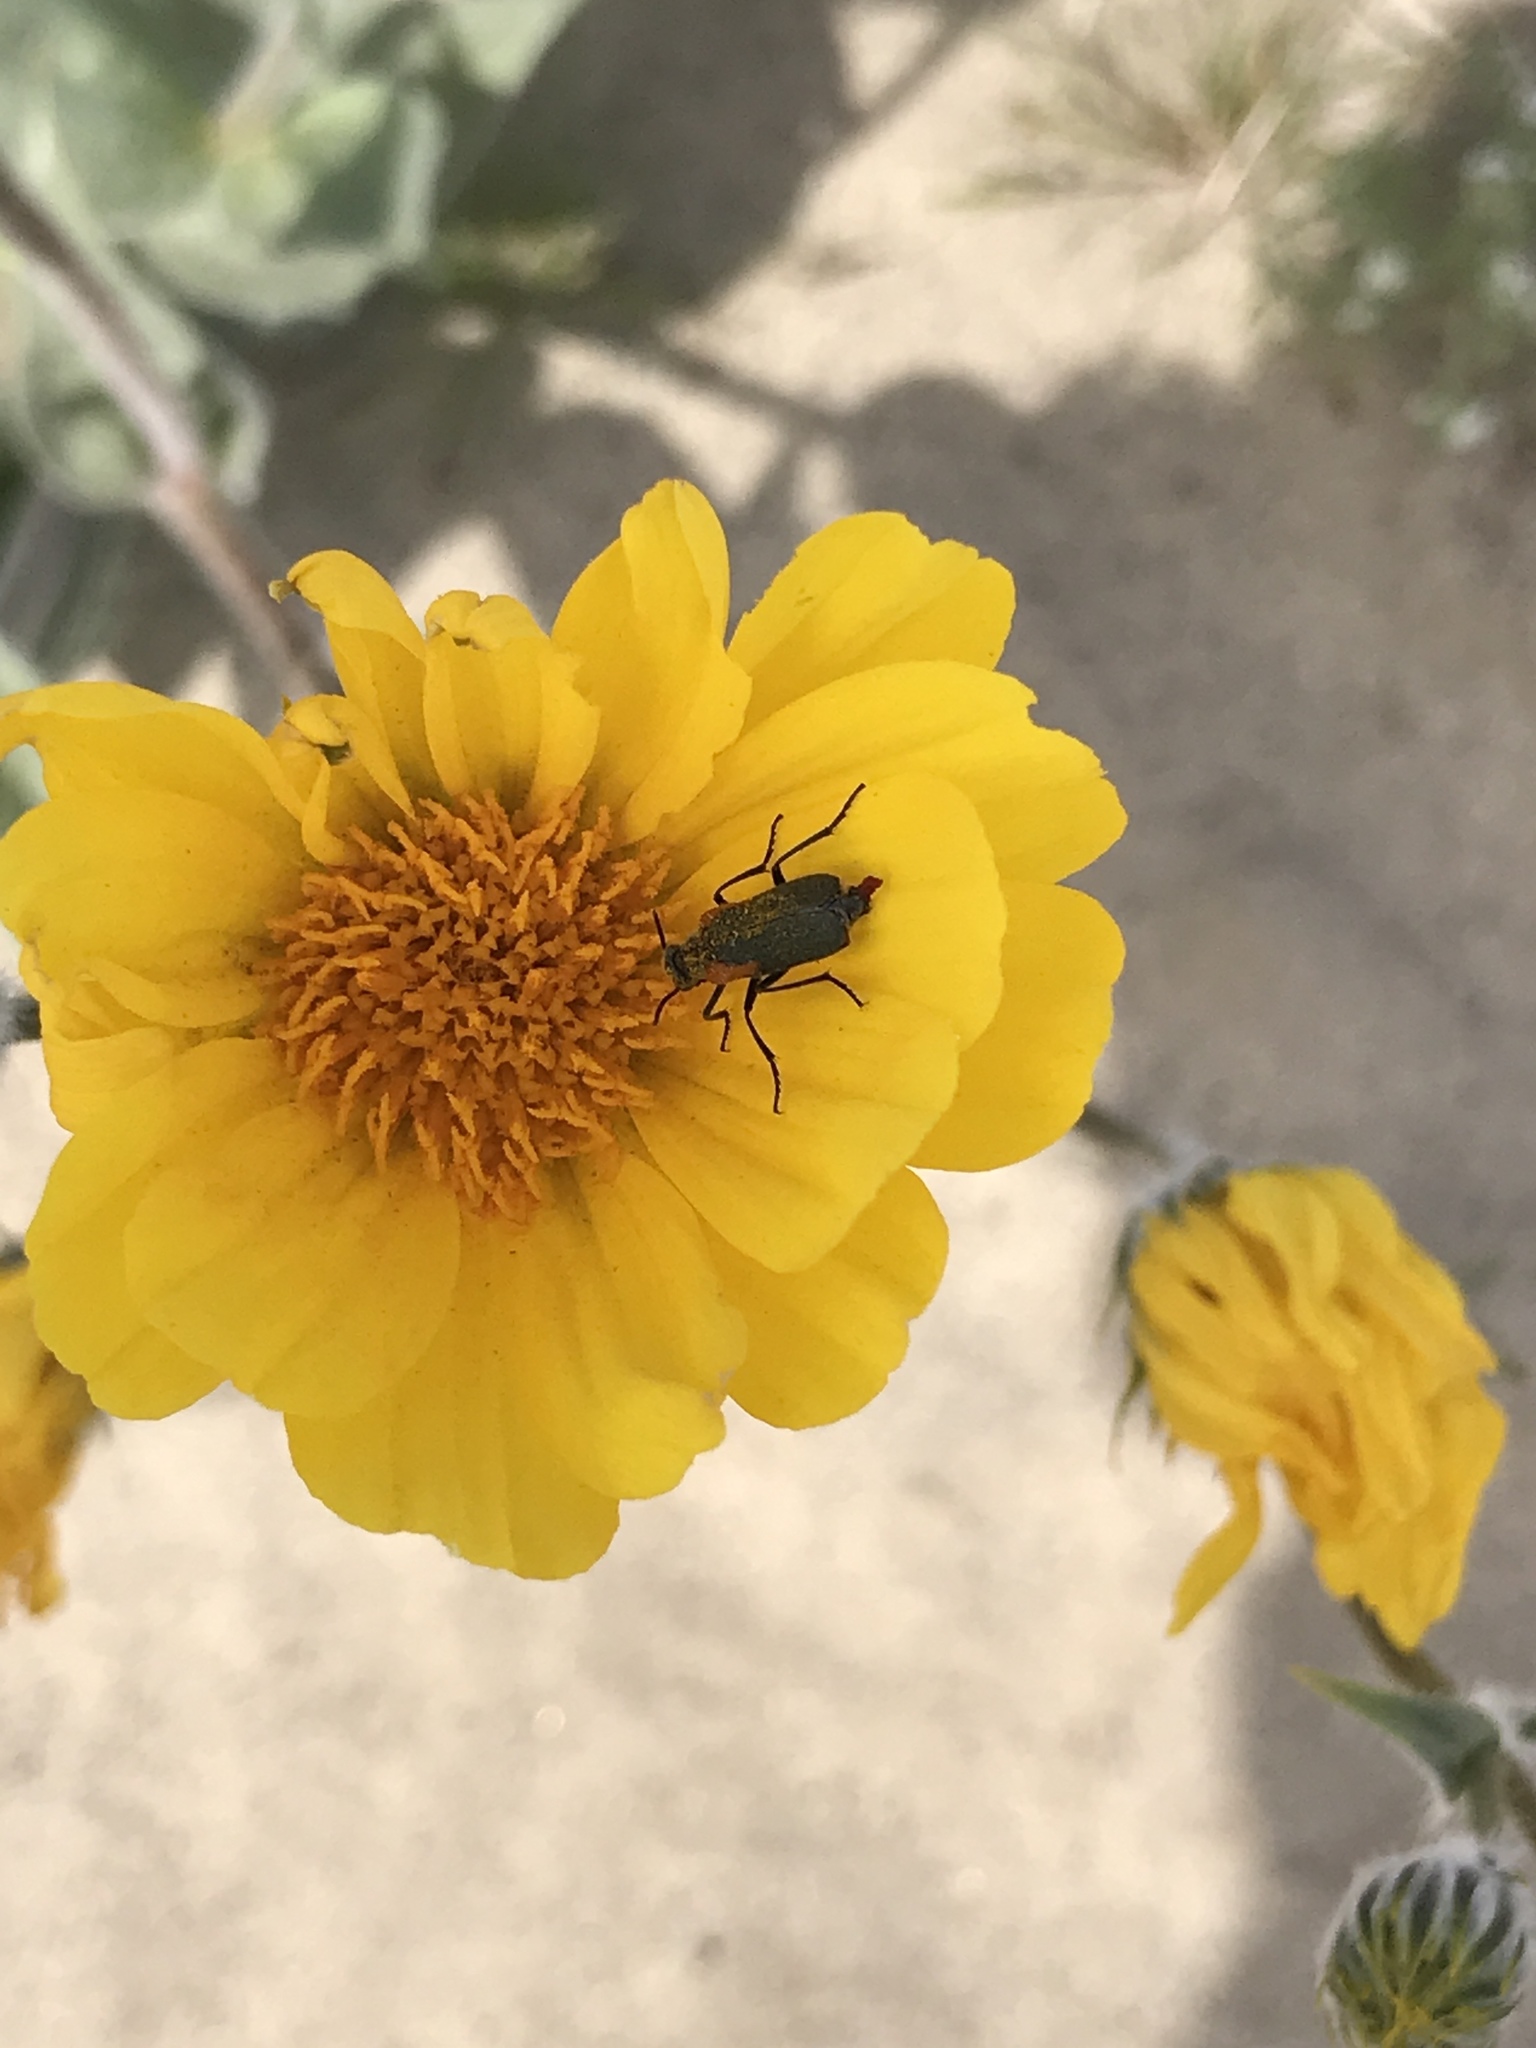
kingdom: Animalia
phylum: Arthropoda
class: Insecta
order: Coleoptera
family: Meloidae
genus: Eupompha
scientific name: Eupompha elegans
